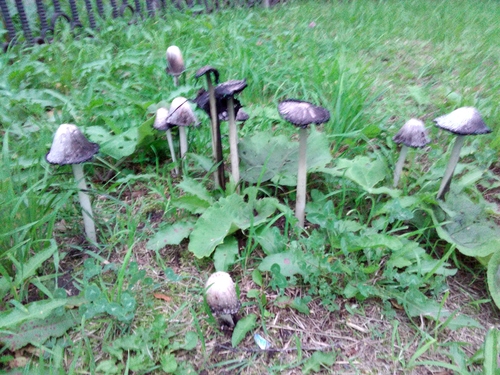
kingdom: Fungi
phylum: Basidiomycota
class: Agaricomycetes
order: Agaricales
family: Agaricaceae
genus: Coprinus
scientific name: Coprinus comatus
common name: Lawyer's wig
